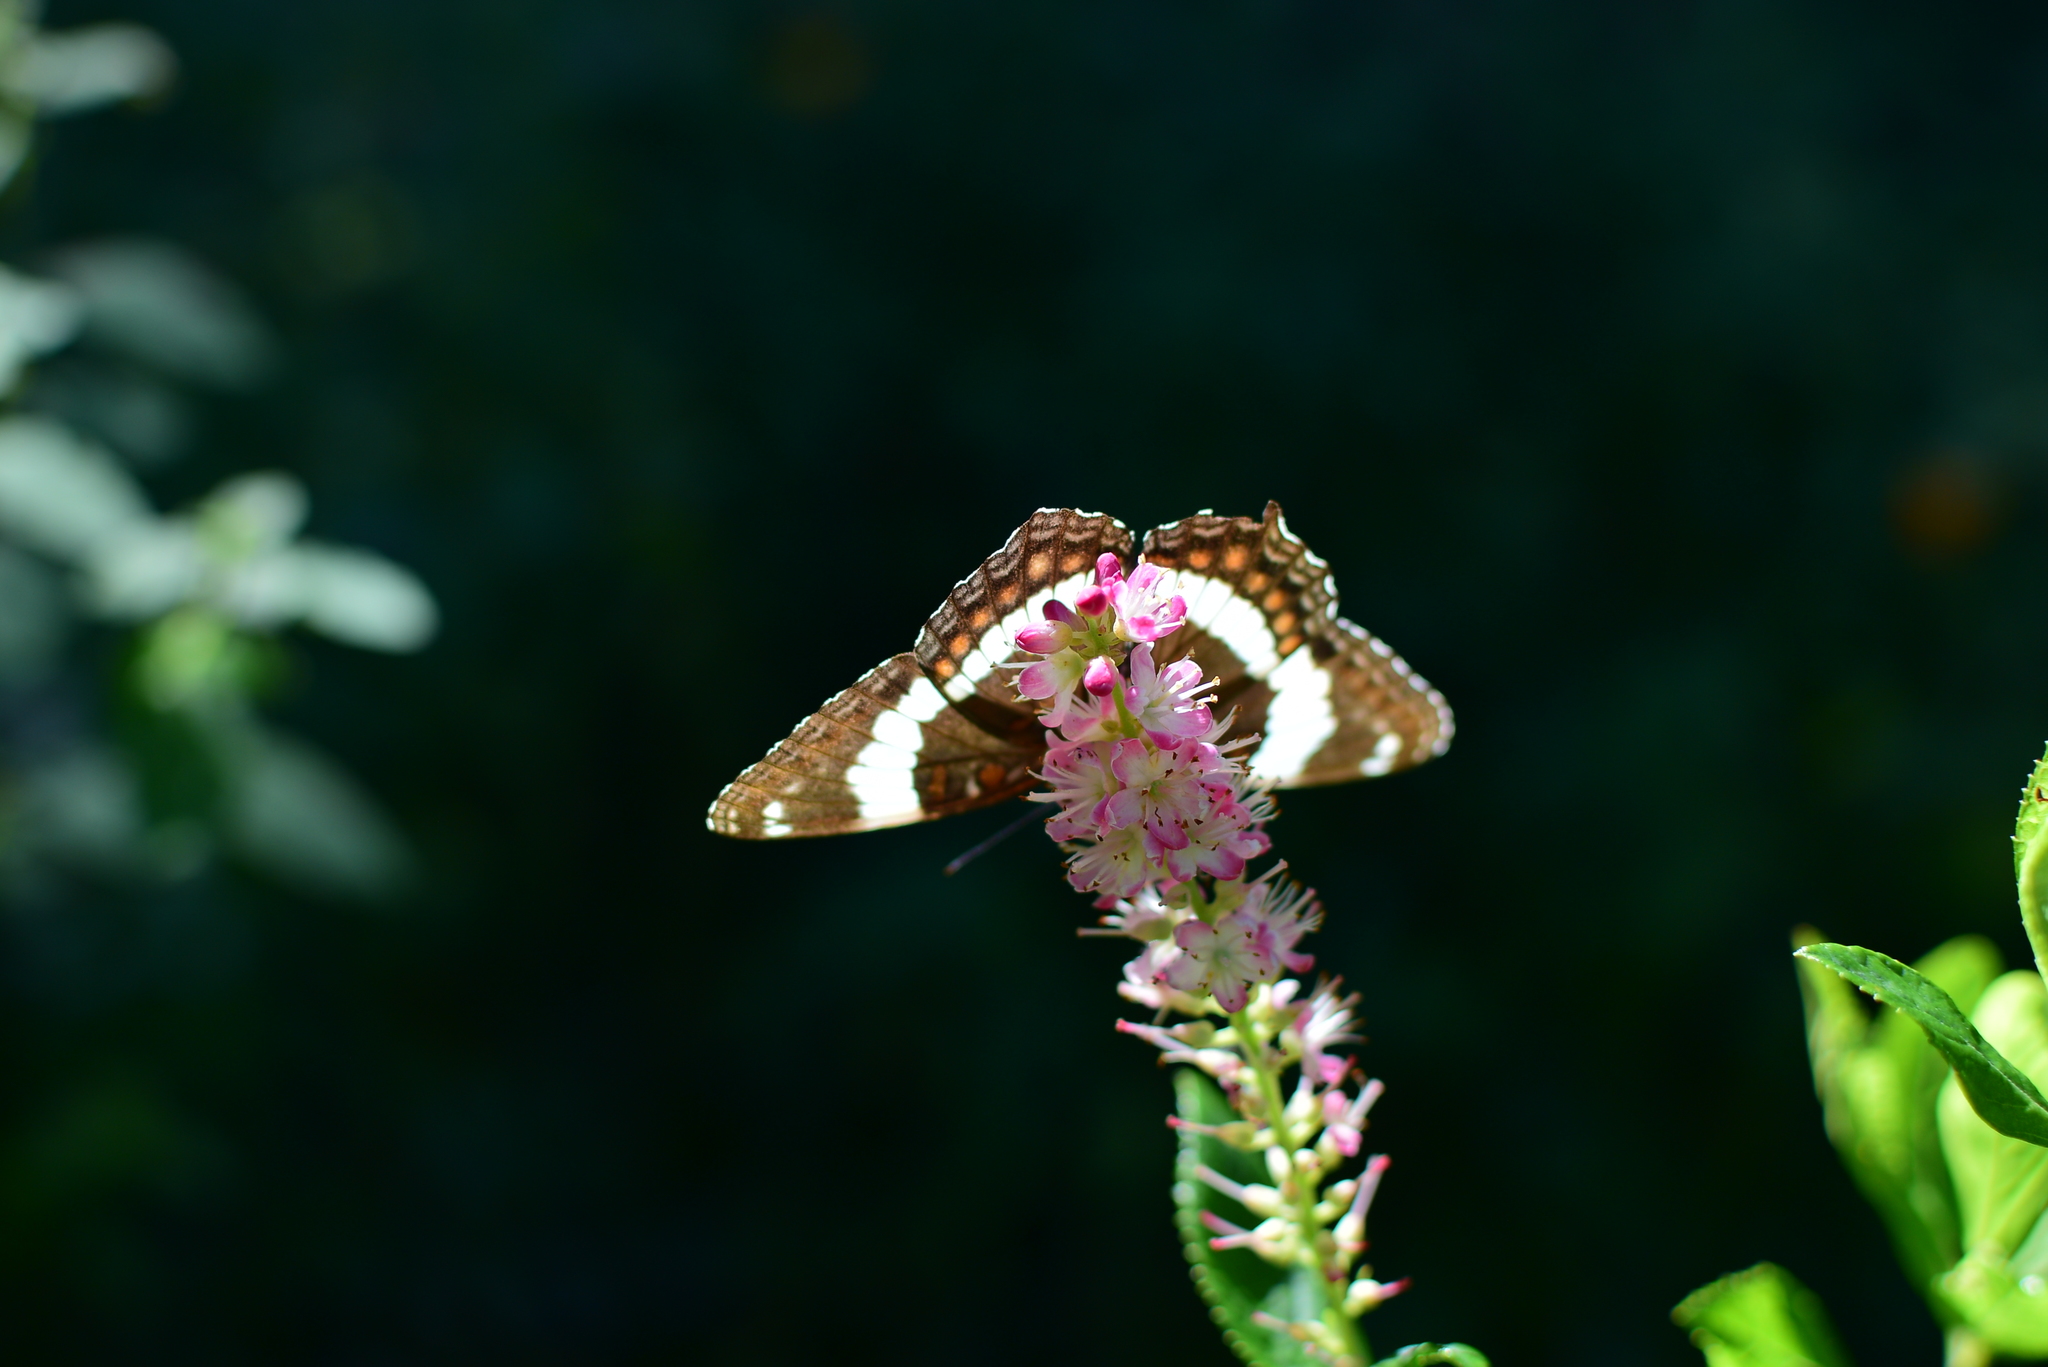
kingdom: Animalia
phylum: Arthropoda
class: Insecta
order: Lepidoptera
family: Nymphalidae
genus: Limenitis
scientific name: Limenitis arthemis
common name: Red-spotted admiral
